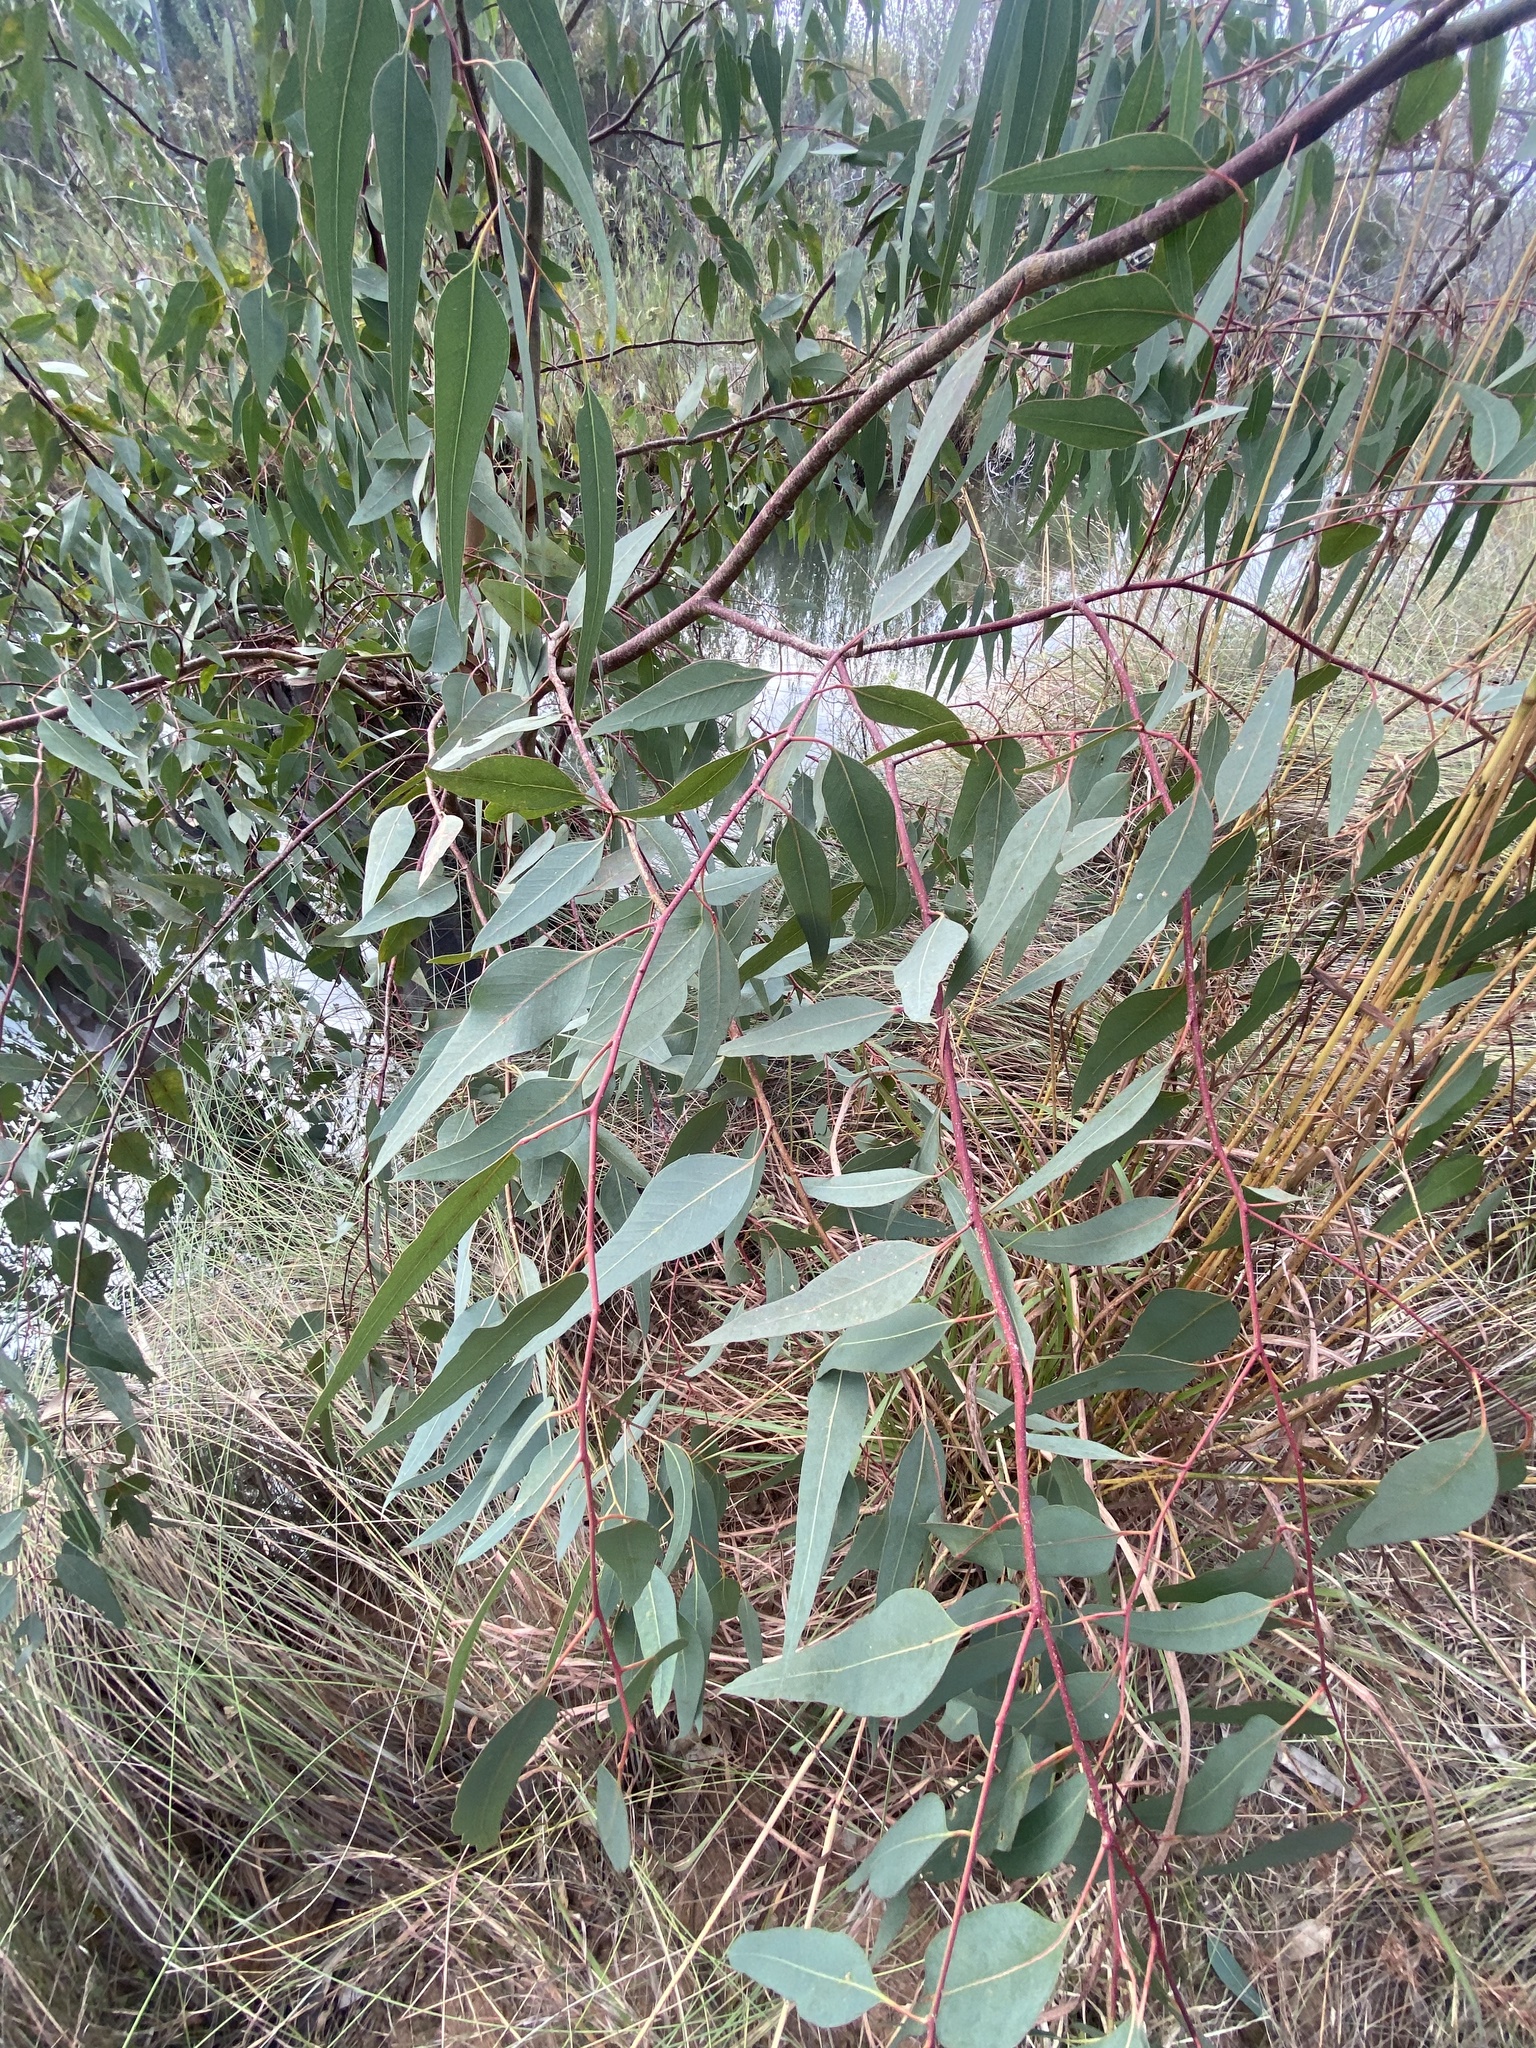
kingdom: Plantae
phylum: Tracheophyta
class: Magnoliopsida
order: Myrtales
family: Myrtaceae
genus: Eucalyptus
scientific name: Eucalyptus camaldulensis
